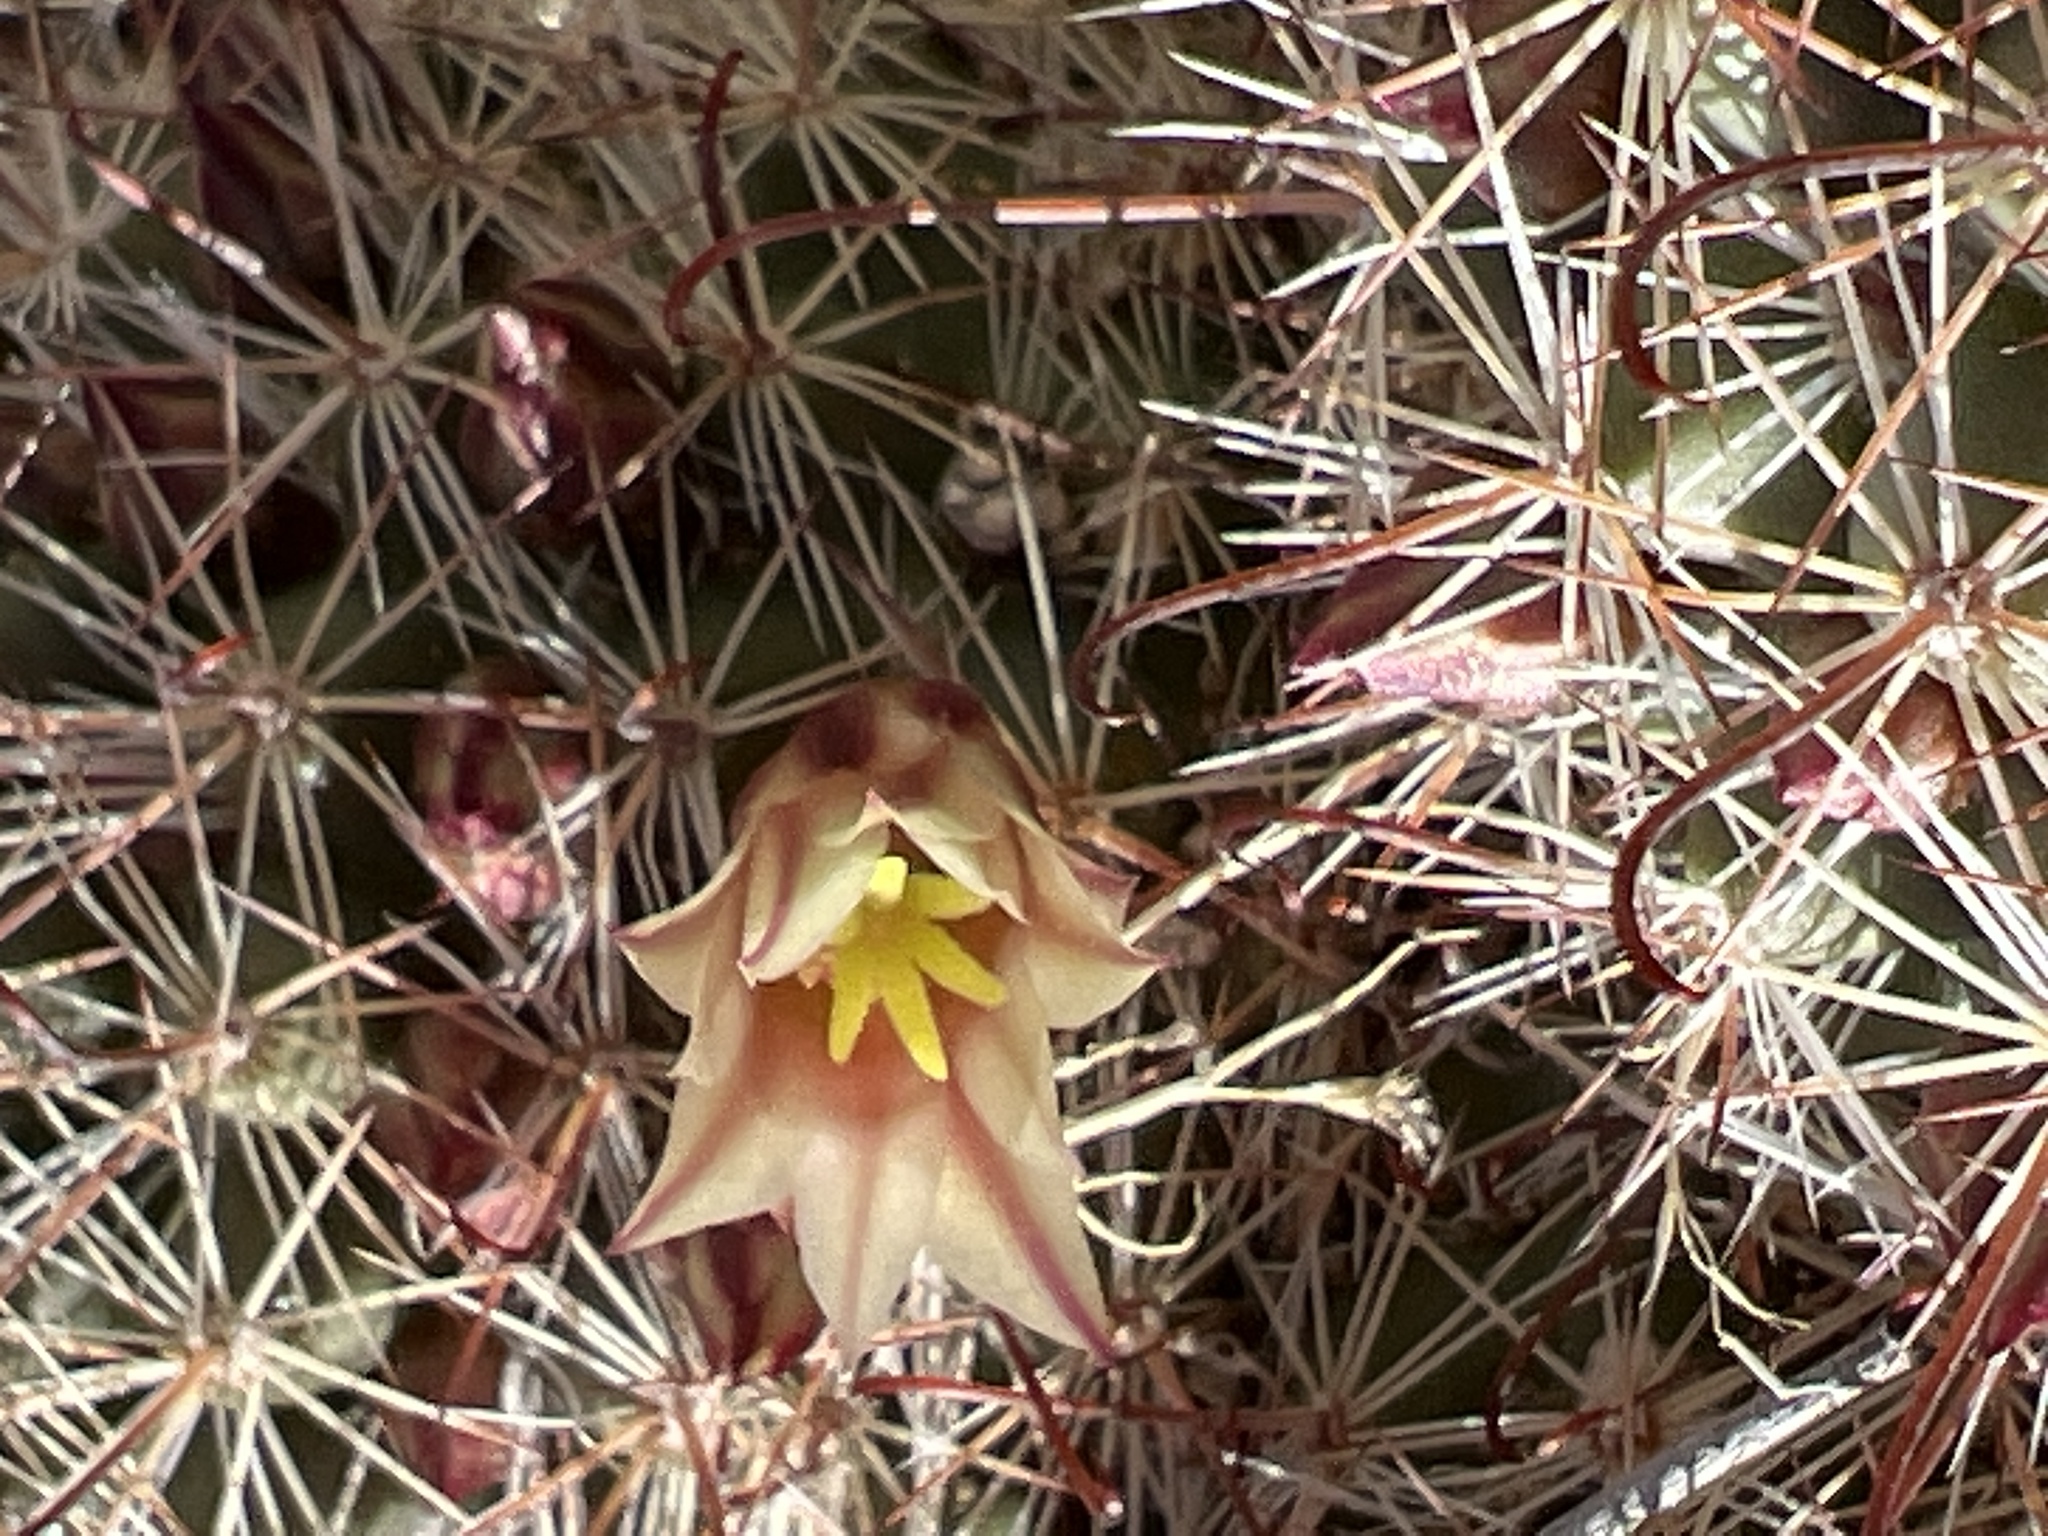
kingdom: Plantae
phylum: Tracheophyta
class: Magnoliopsida
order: Caryophyllales
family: Cactaceae
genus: Cochemiea
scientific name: Cochemiea dioica
